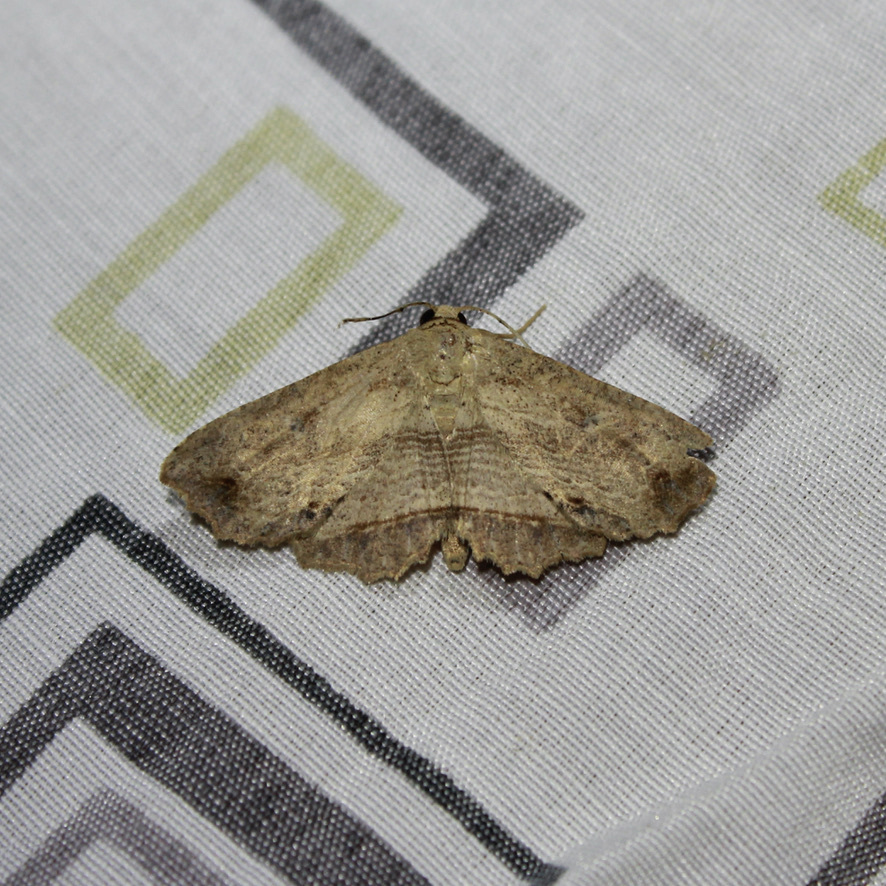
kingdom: Animalia
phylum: Arthropoda
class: Insecta
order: Lepidoptera
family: Erebidae
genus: Oroscopa
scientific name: Oroscopa abluta
